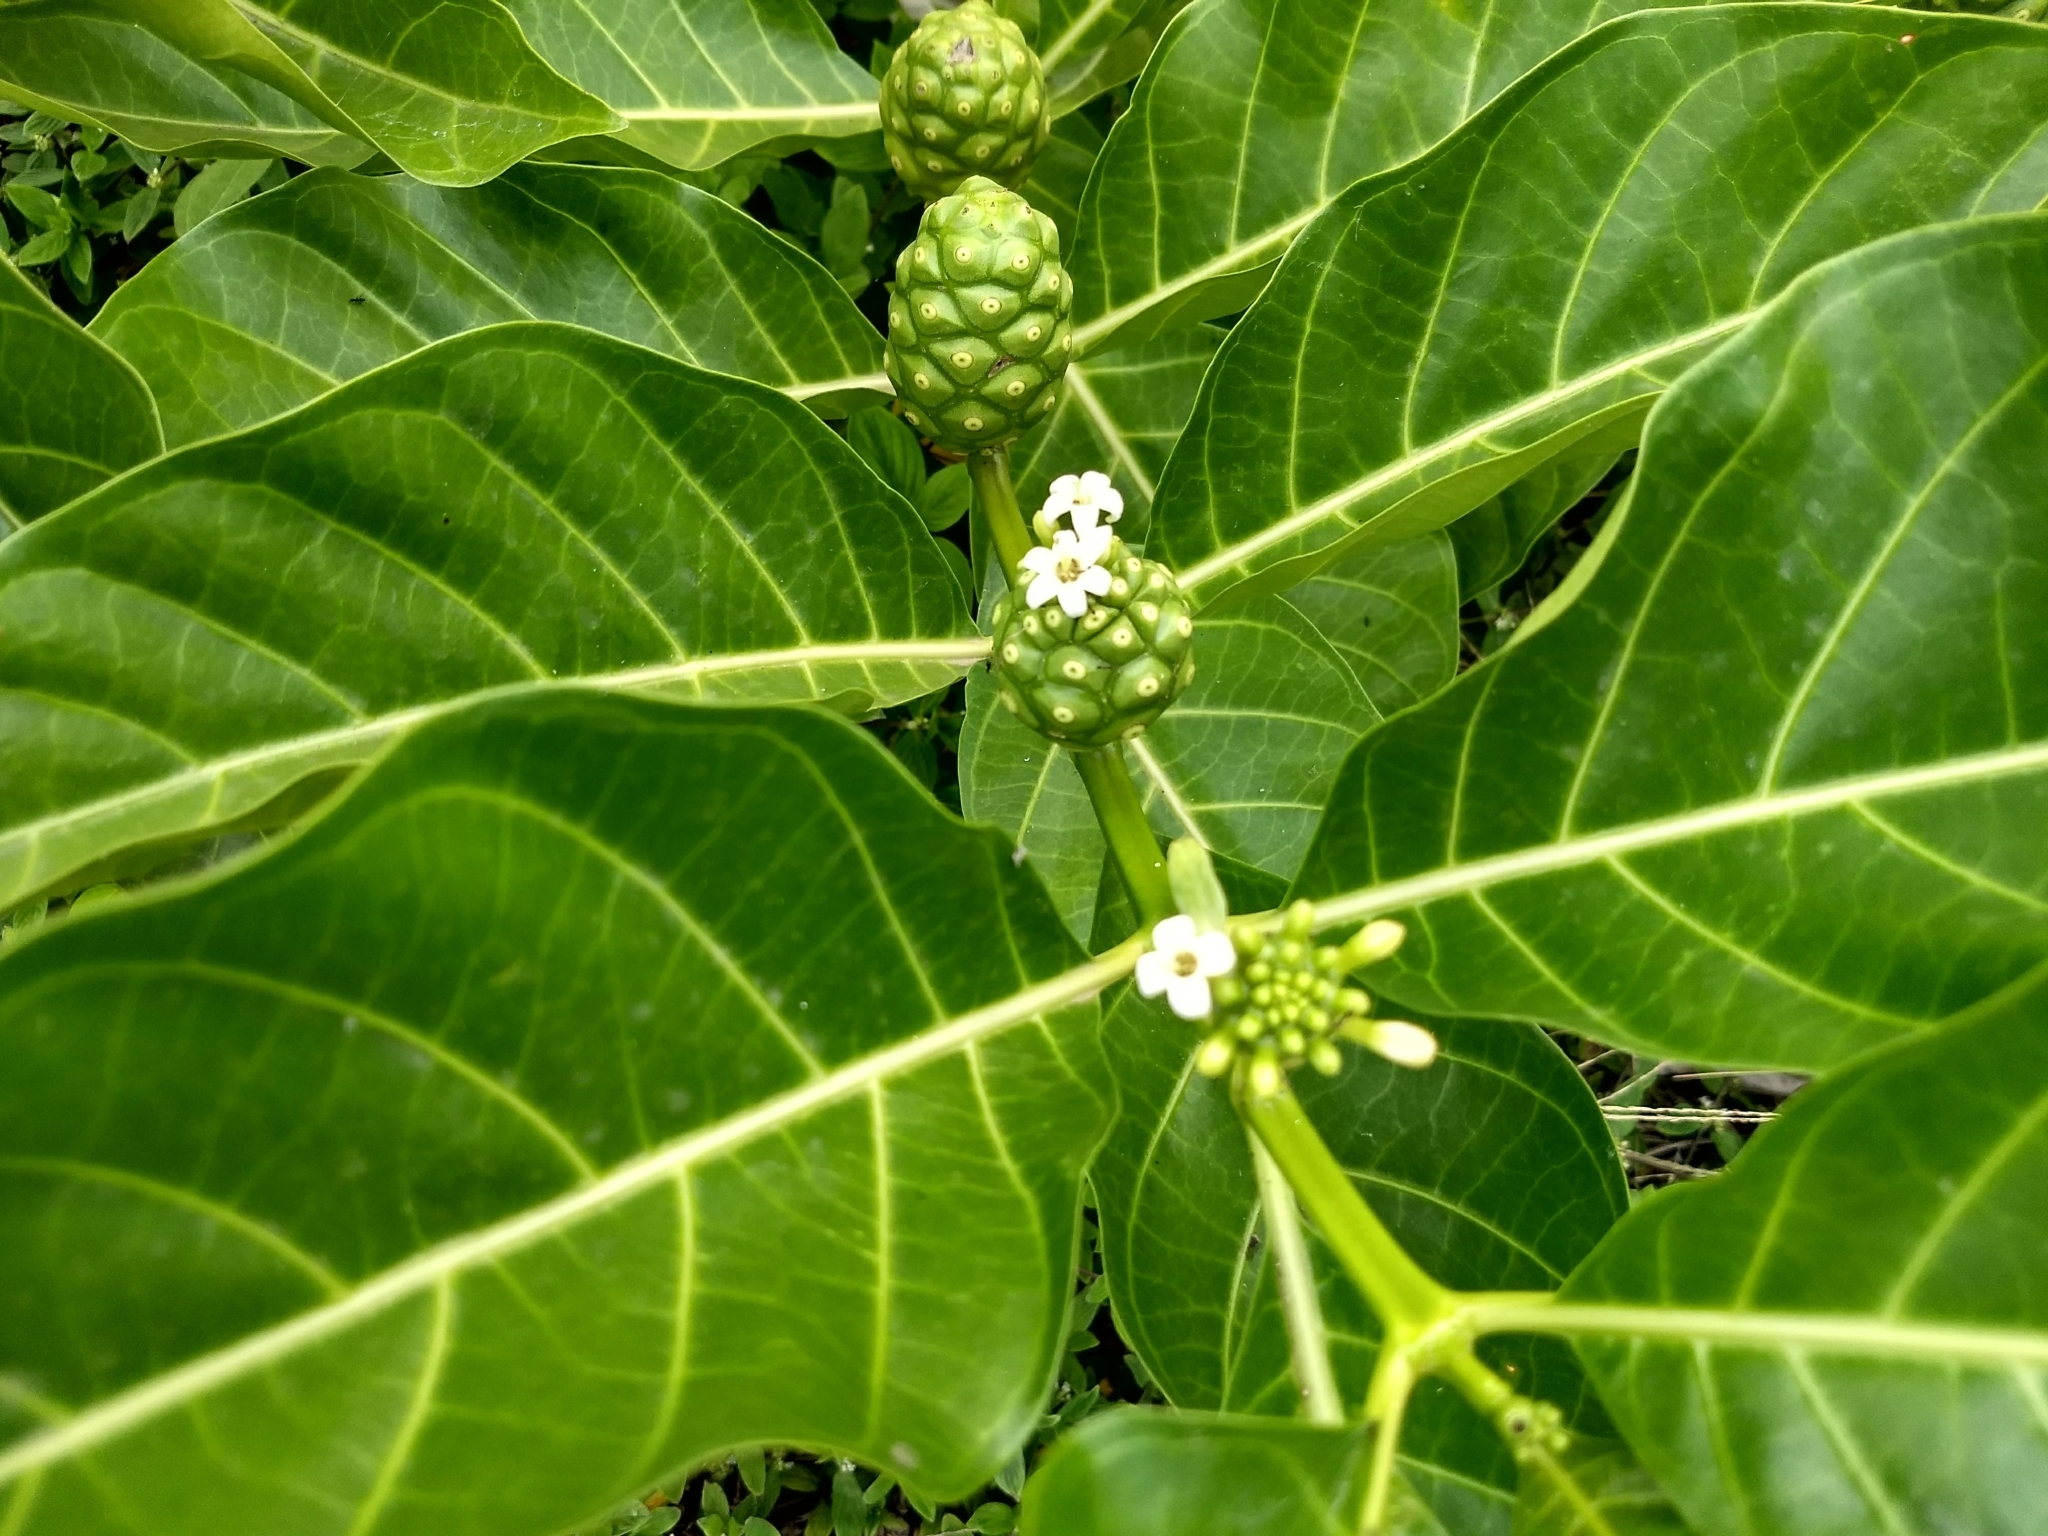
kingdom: Plantae
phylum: Tracheophyta
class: Magnoliopsida
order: Gentianales
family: Rubiaceae
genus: Morinda
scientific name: Morinda citrifolia
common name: Indian-mulberry
